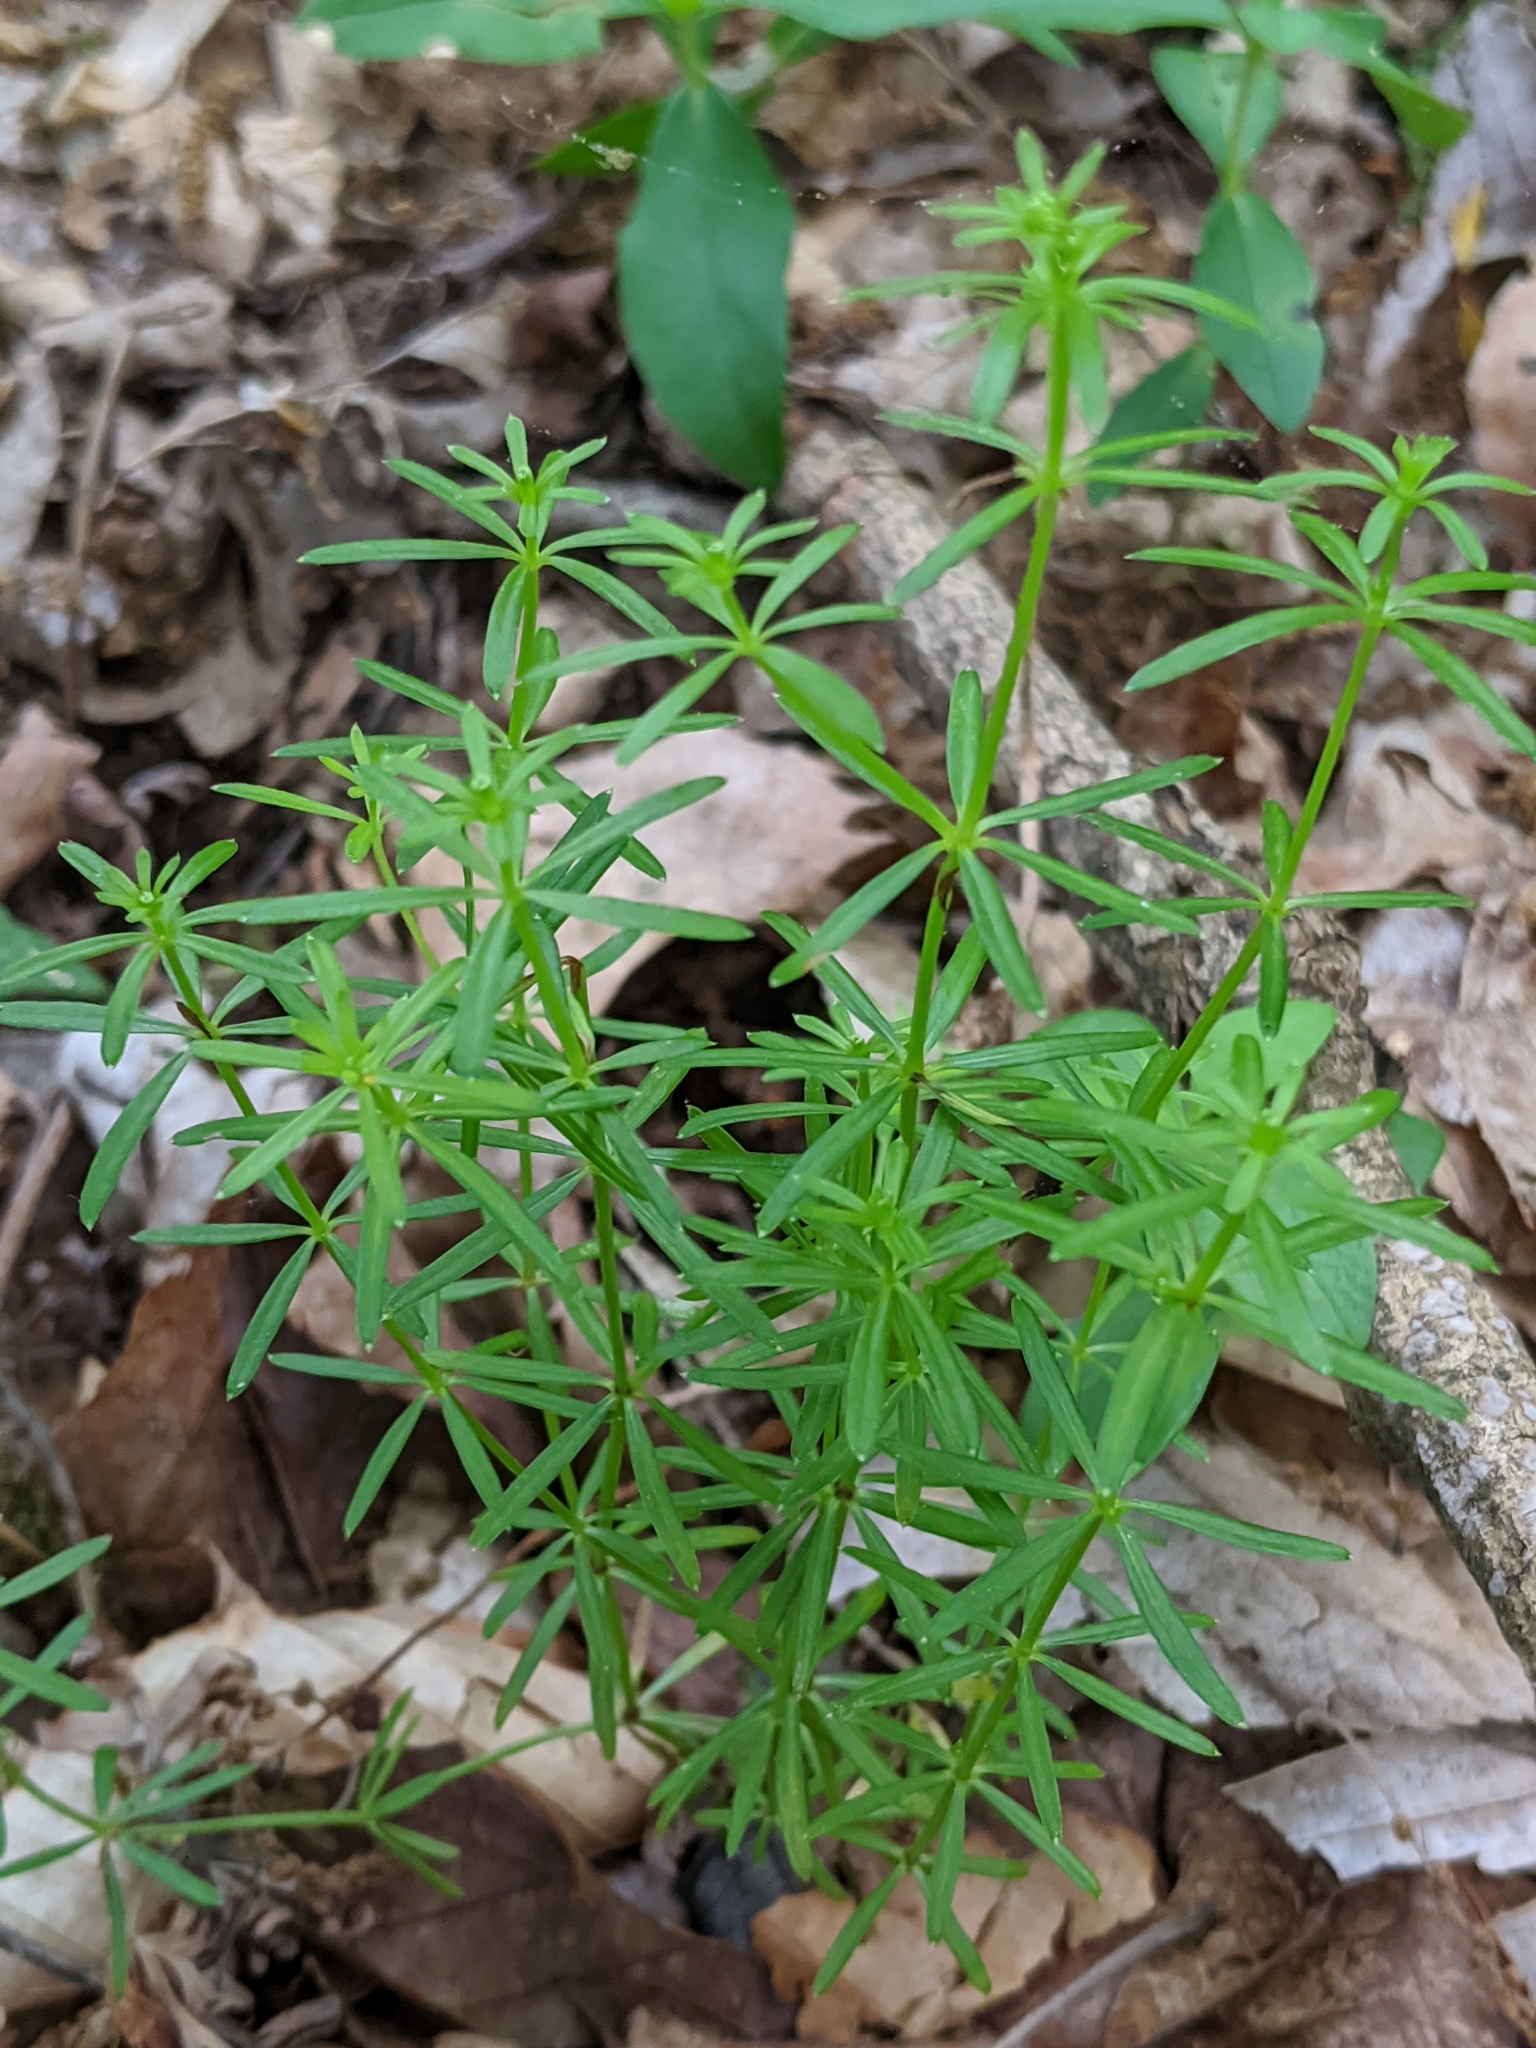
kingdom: Plantae
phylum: Tracheophyta
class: Magnoliopsida
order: Gentianales
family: Rubiaceae
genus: Galium
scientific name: Galium concinnum
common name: Shining bedstraw
